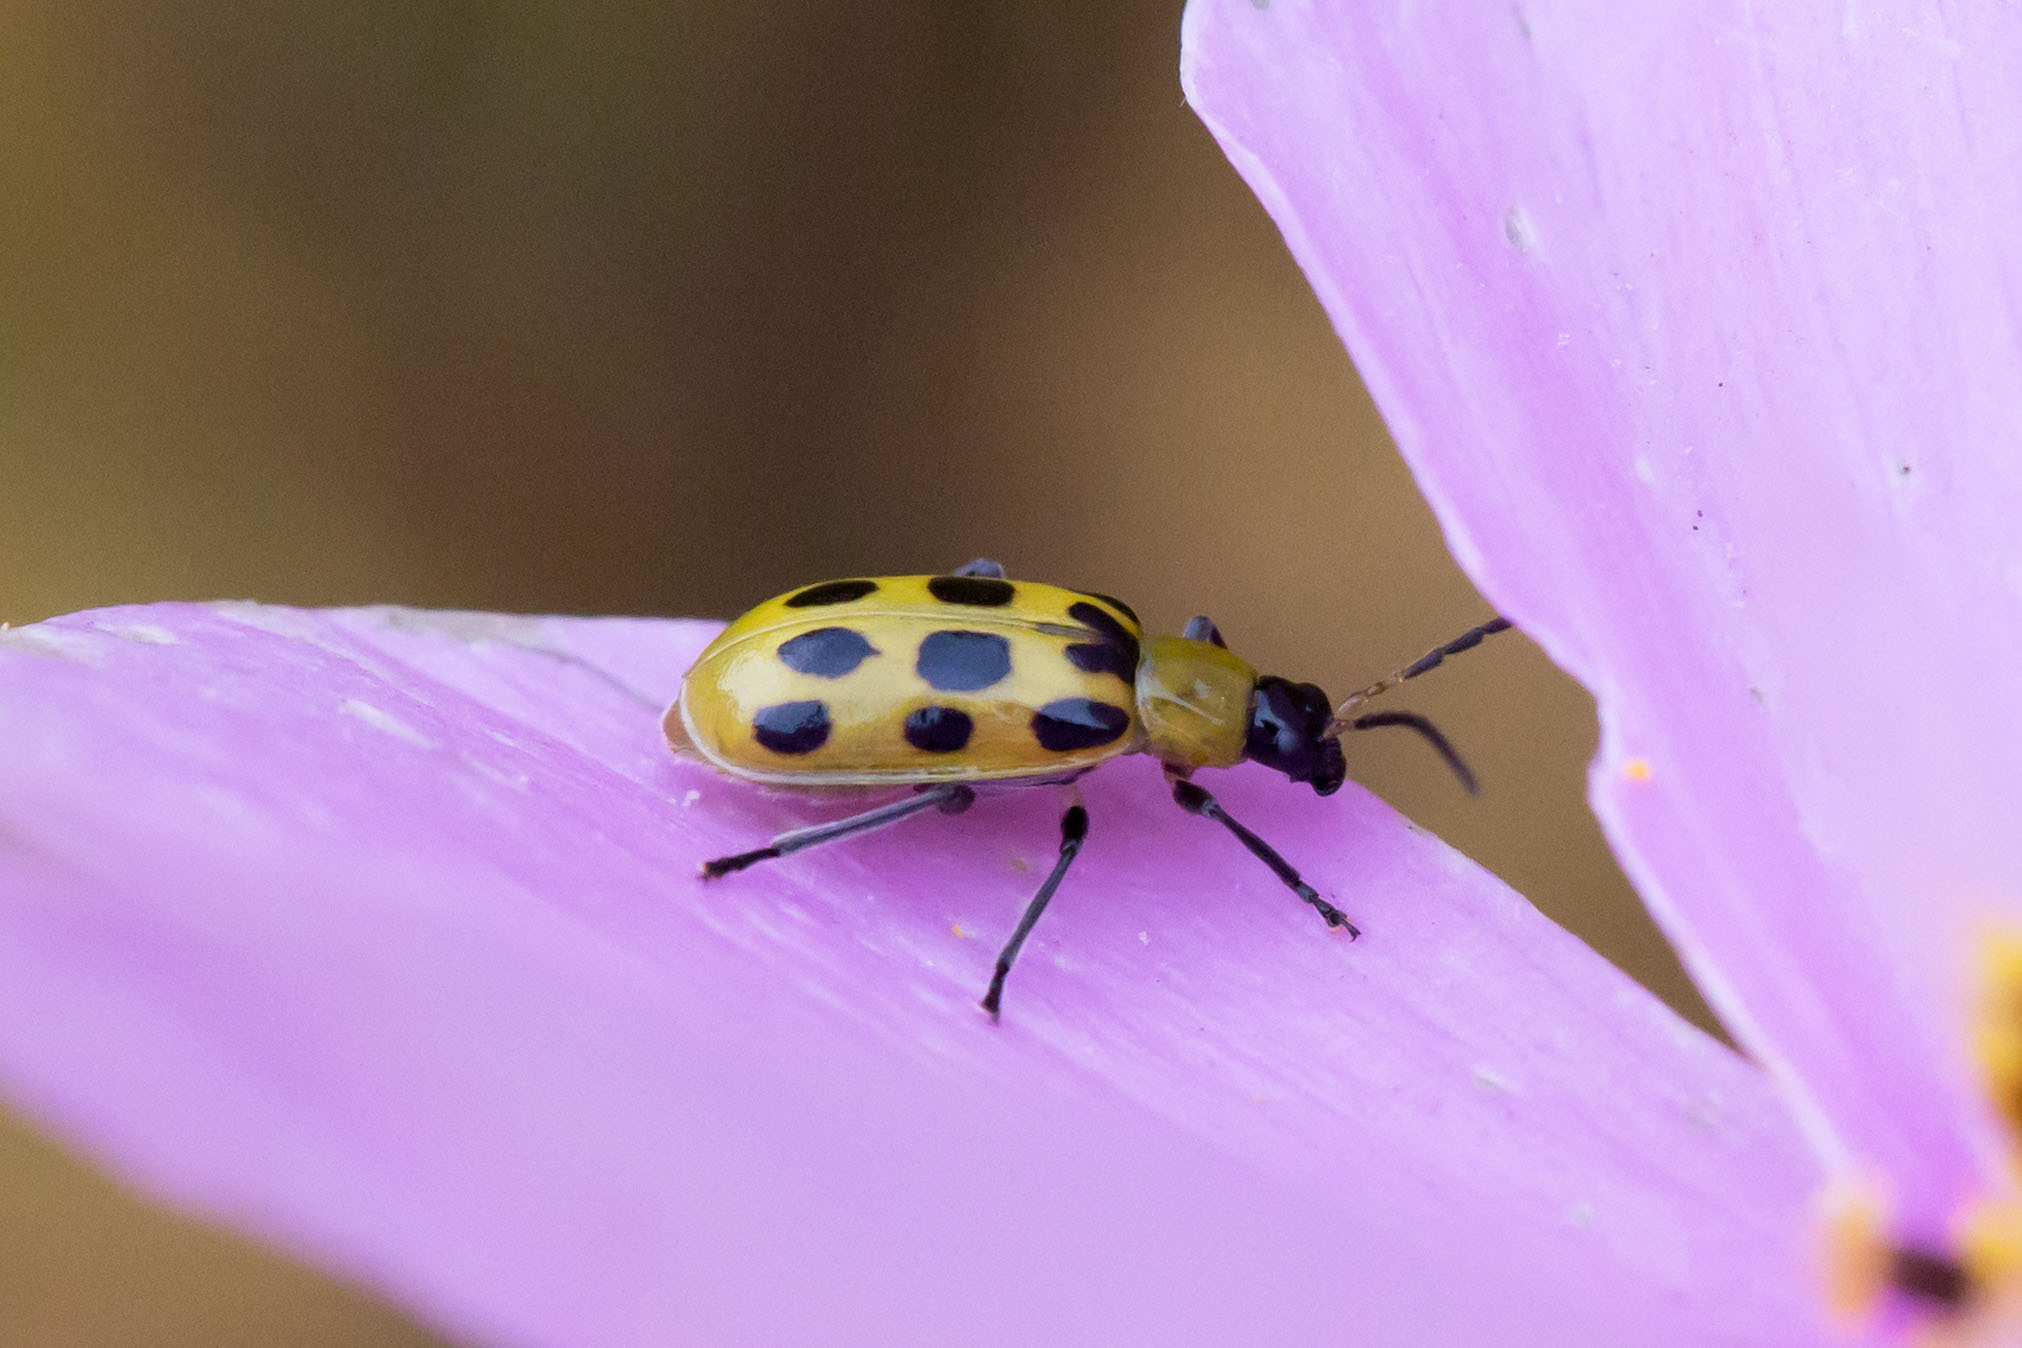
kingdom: Animalia
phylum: Arthropoda
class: Insecta
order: Coleoptera
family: Chrysomelidae
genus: Diabrotica
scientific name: Diabrotica undecimpunctata
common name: Spotted cucumber beetle
